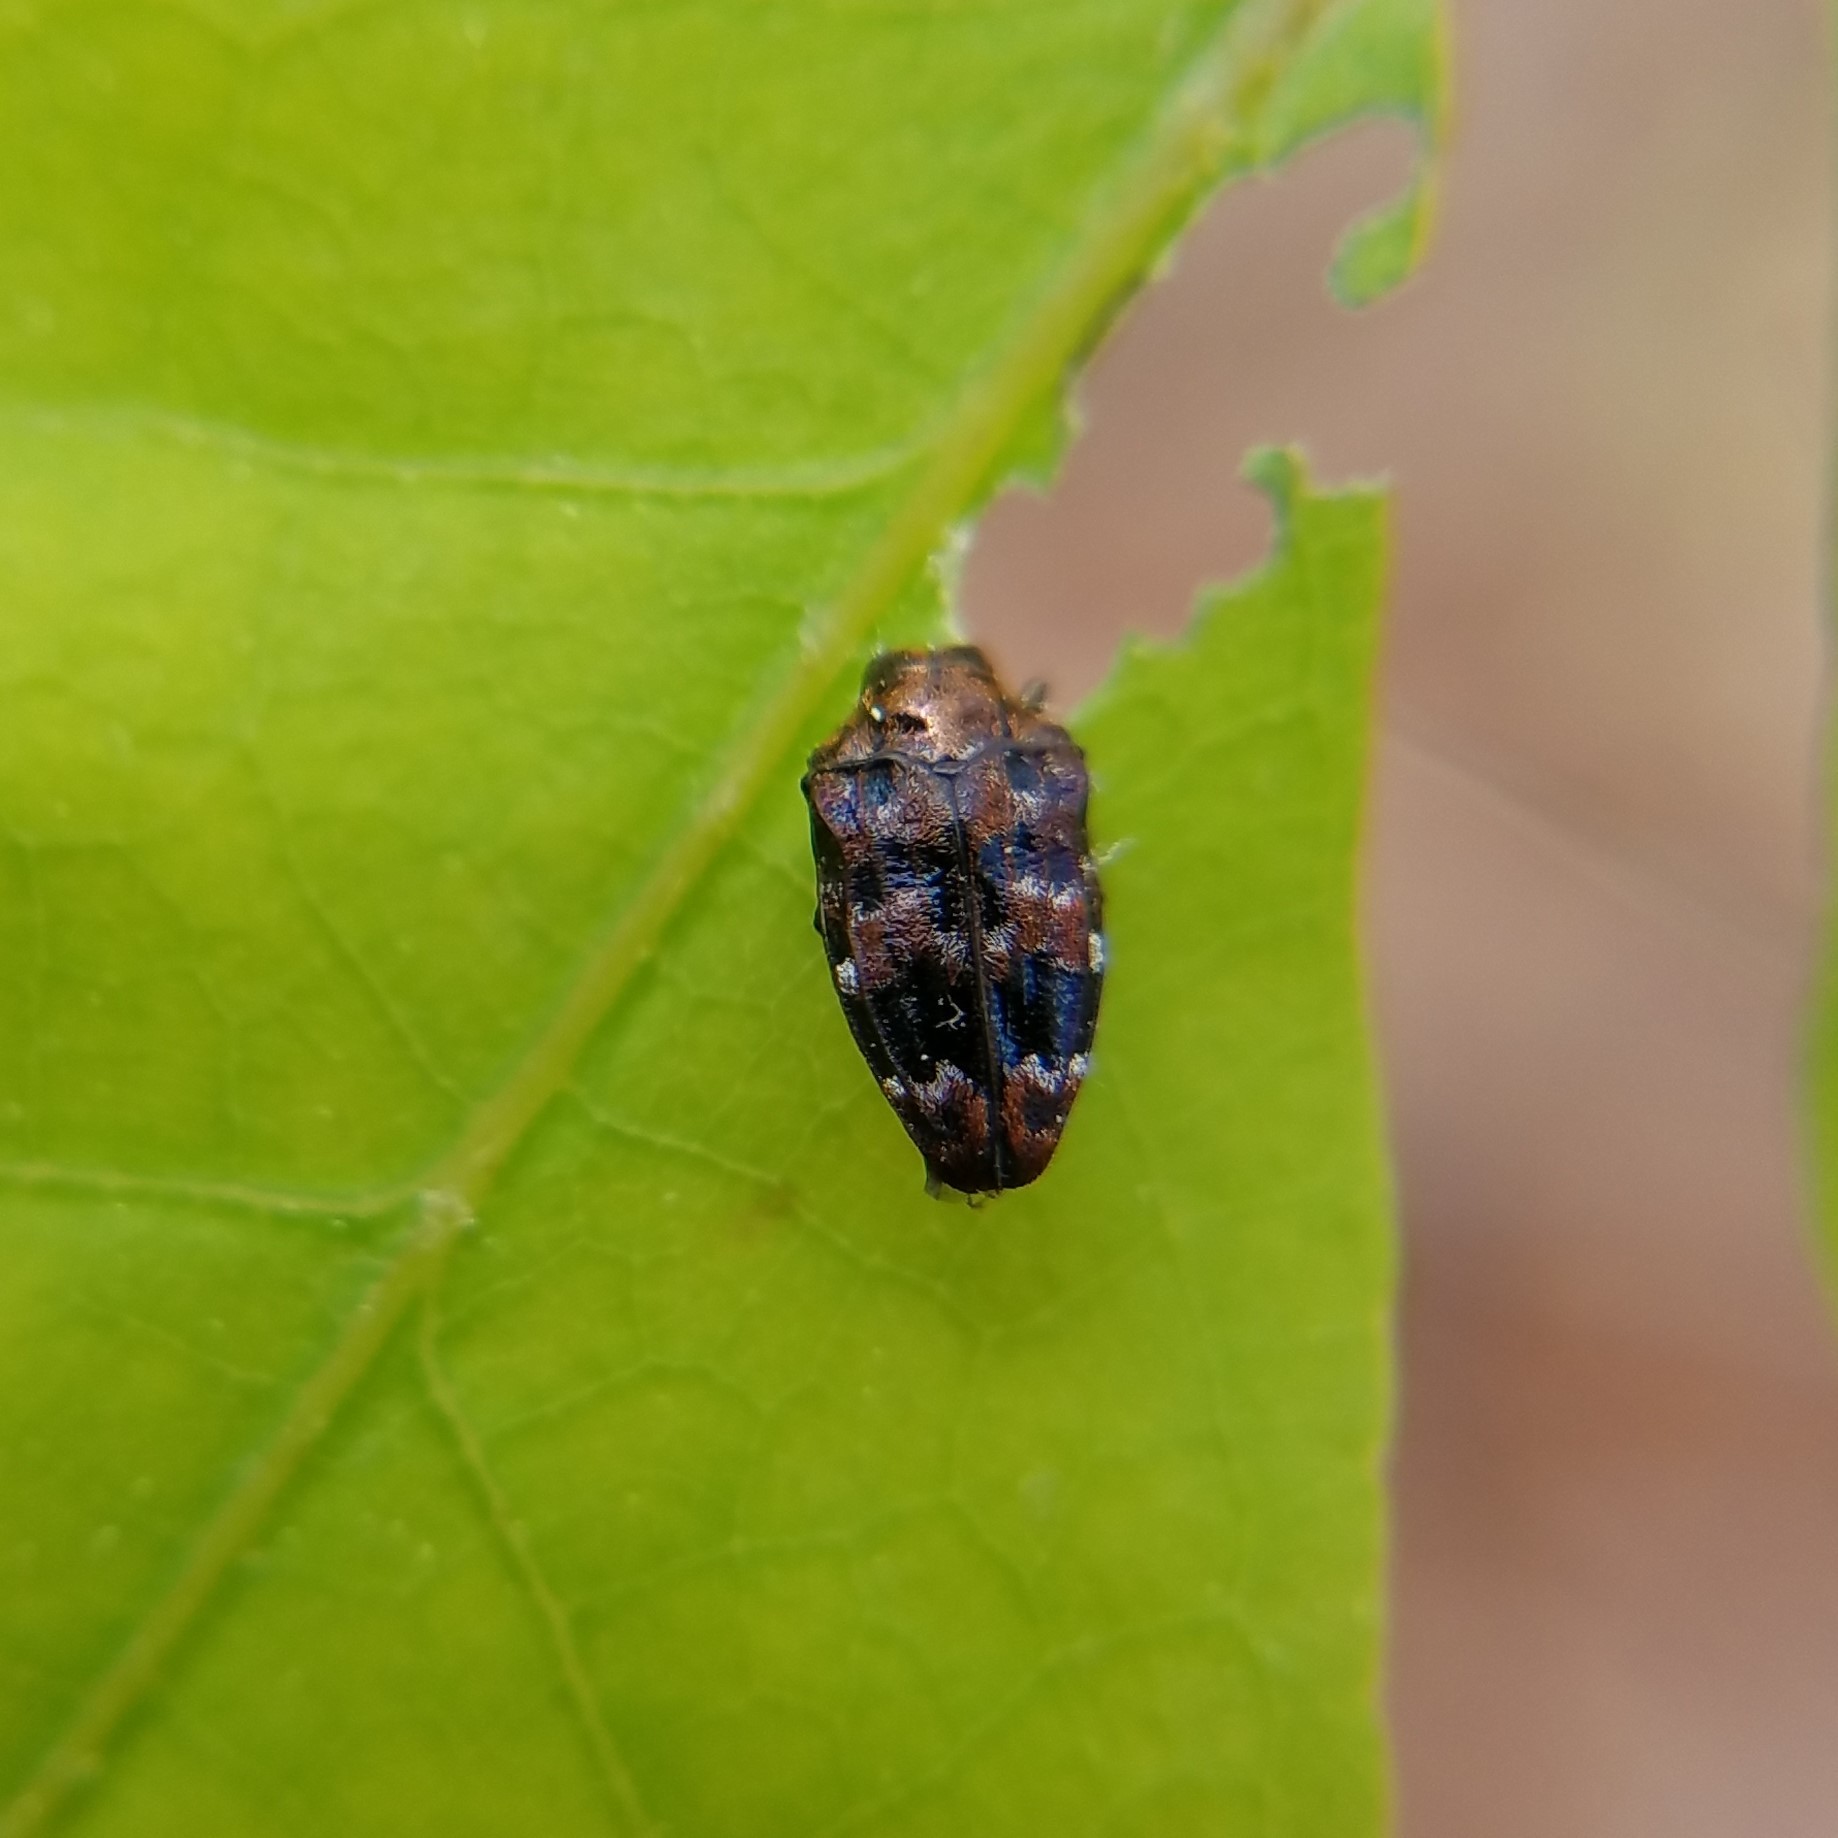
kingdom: Animalia
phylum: Arthropoda
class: Insecta
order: Coleoptera
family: Buprestidae
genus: Brachys
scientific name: Brachys ovatus
